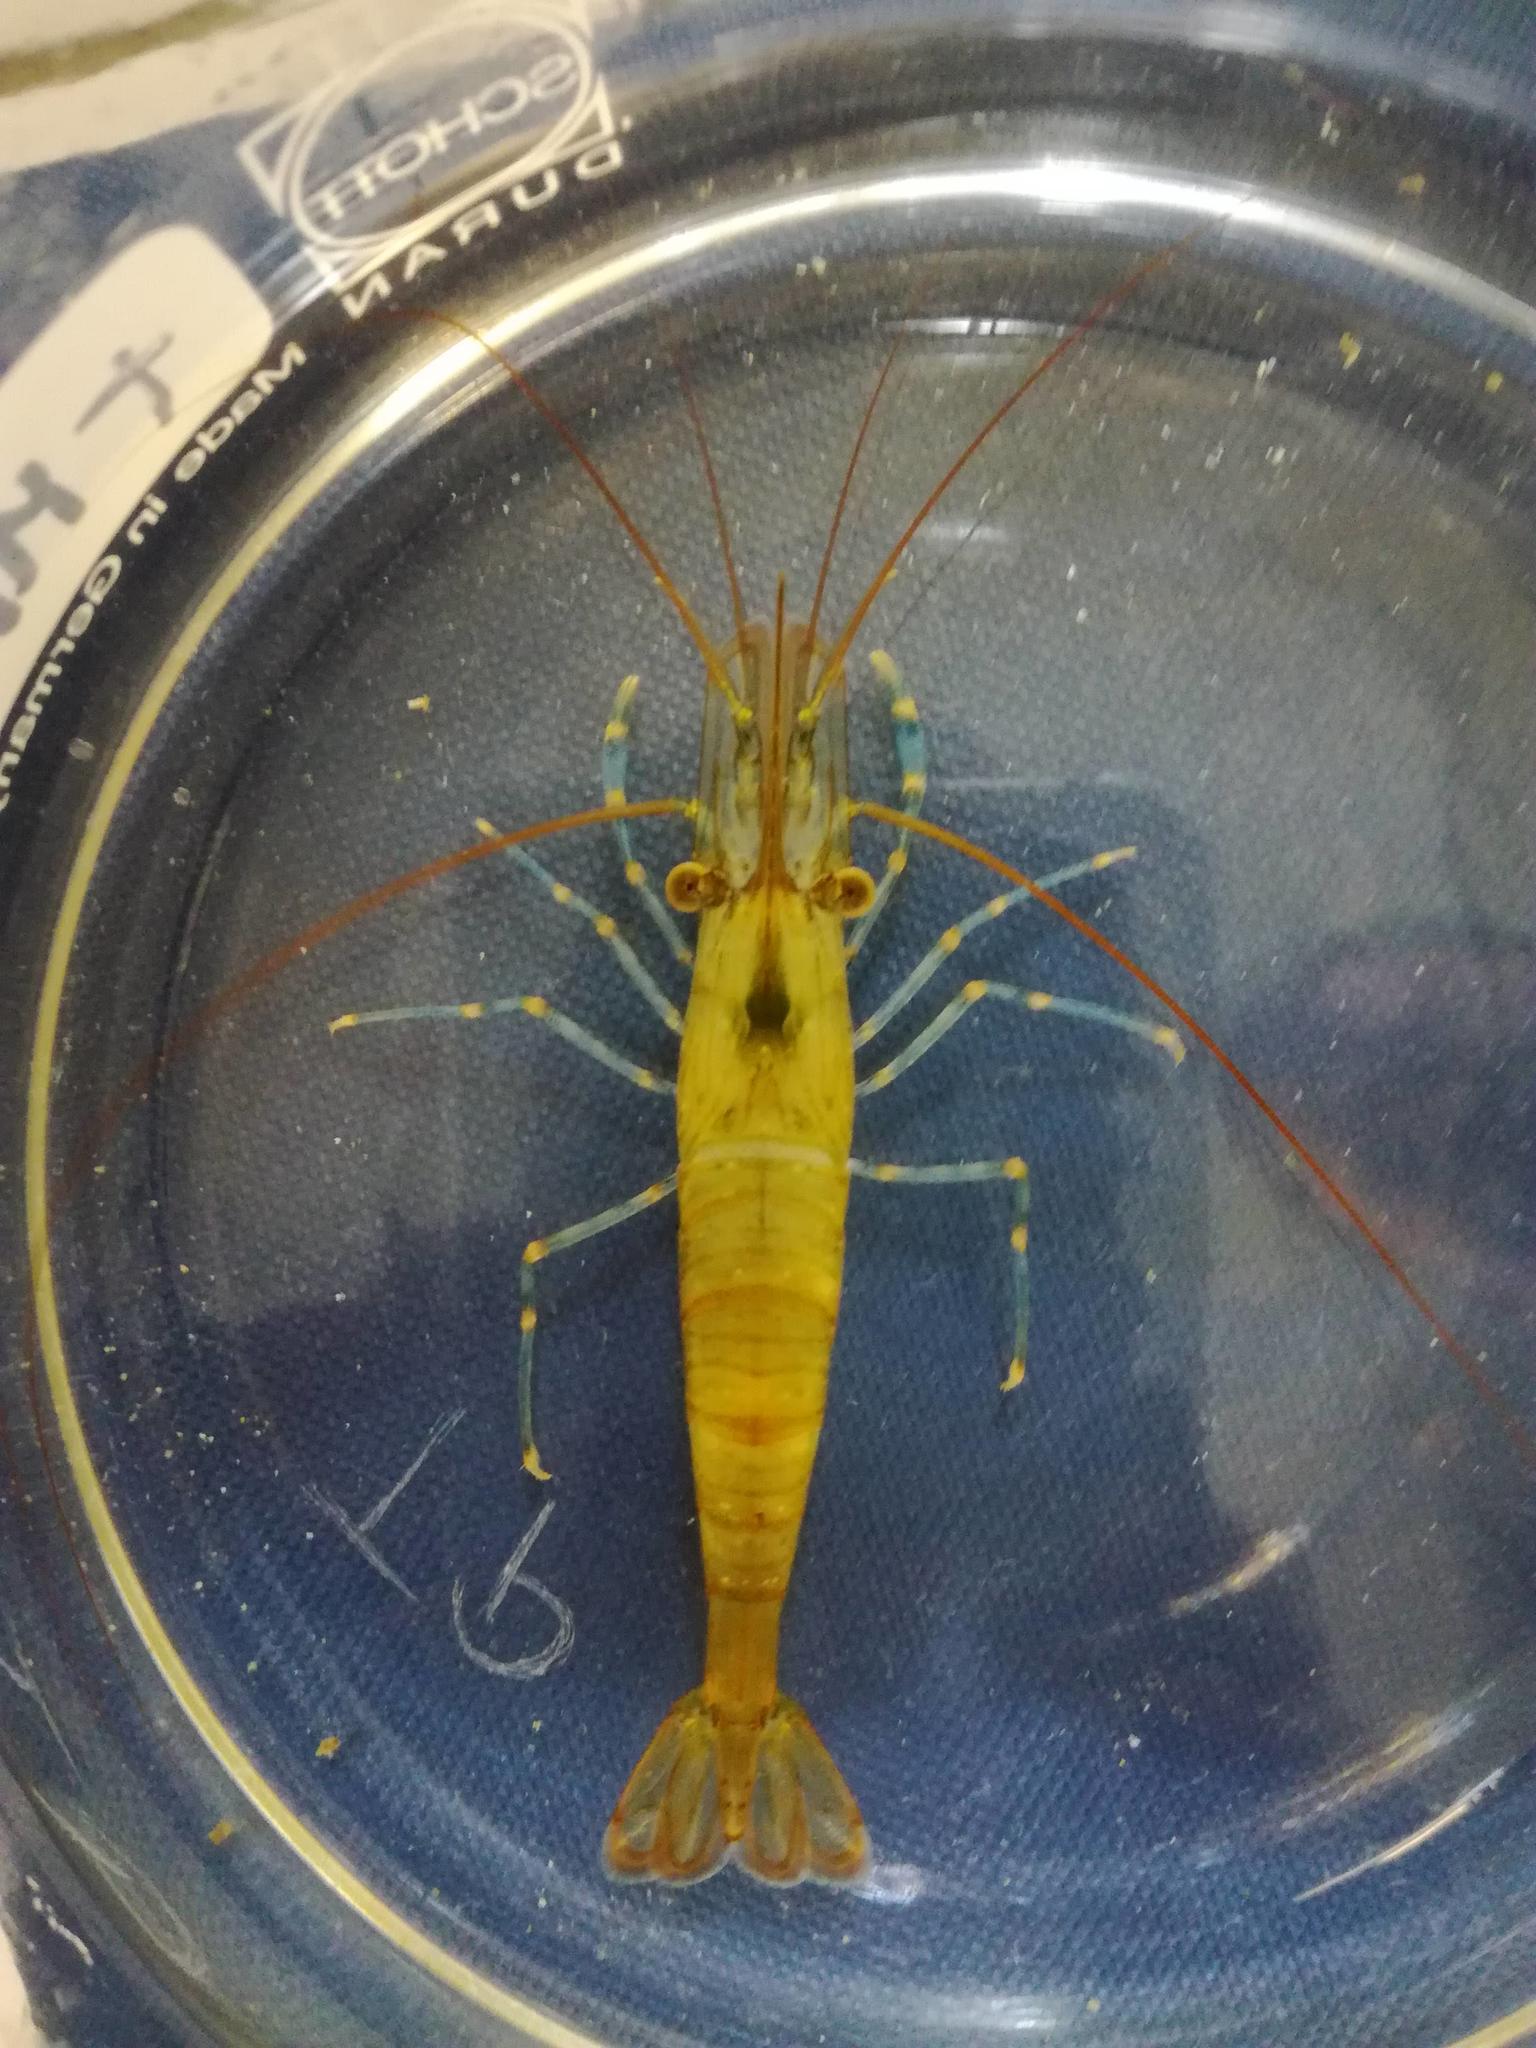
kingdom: Animalia
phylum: Arthropoda
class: Malacostraca
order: Decapoda
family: Palaemonidae
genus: Palaemon
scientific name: Palaemon serratus
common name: Common prawn
